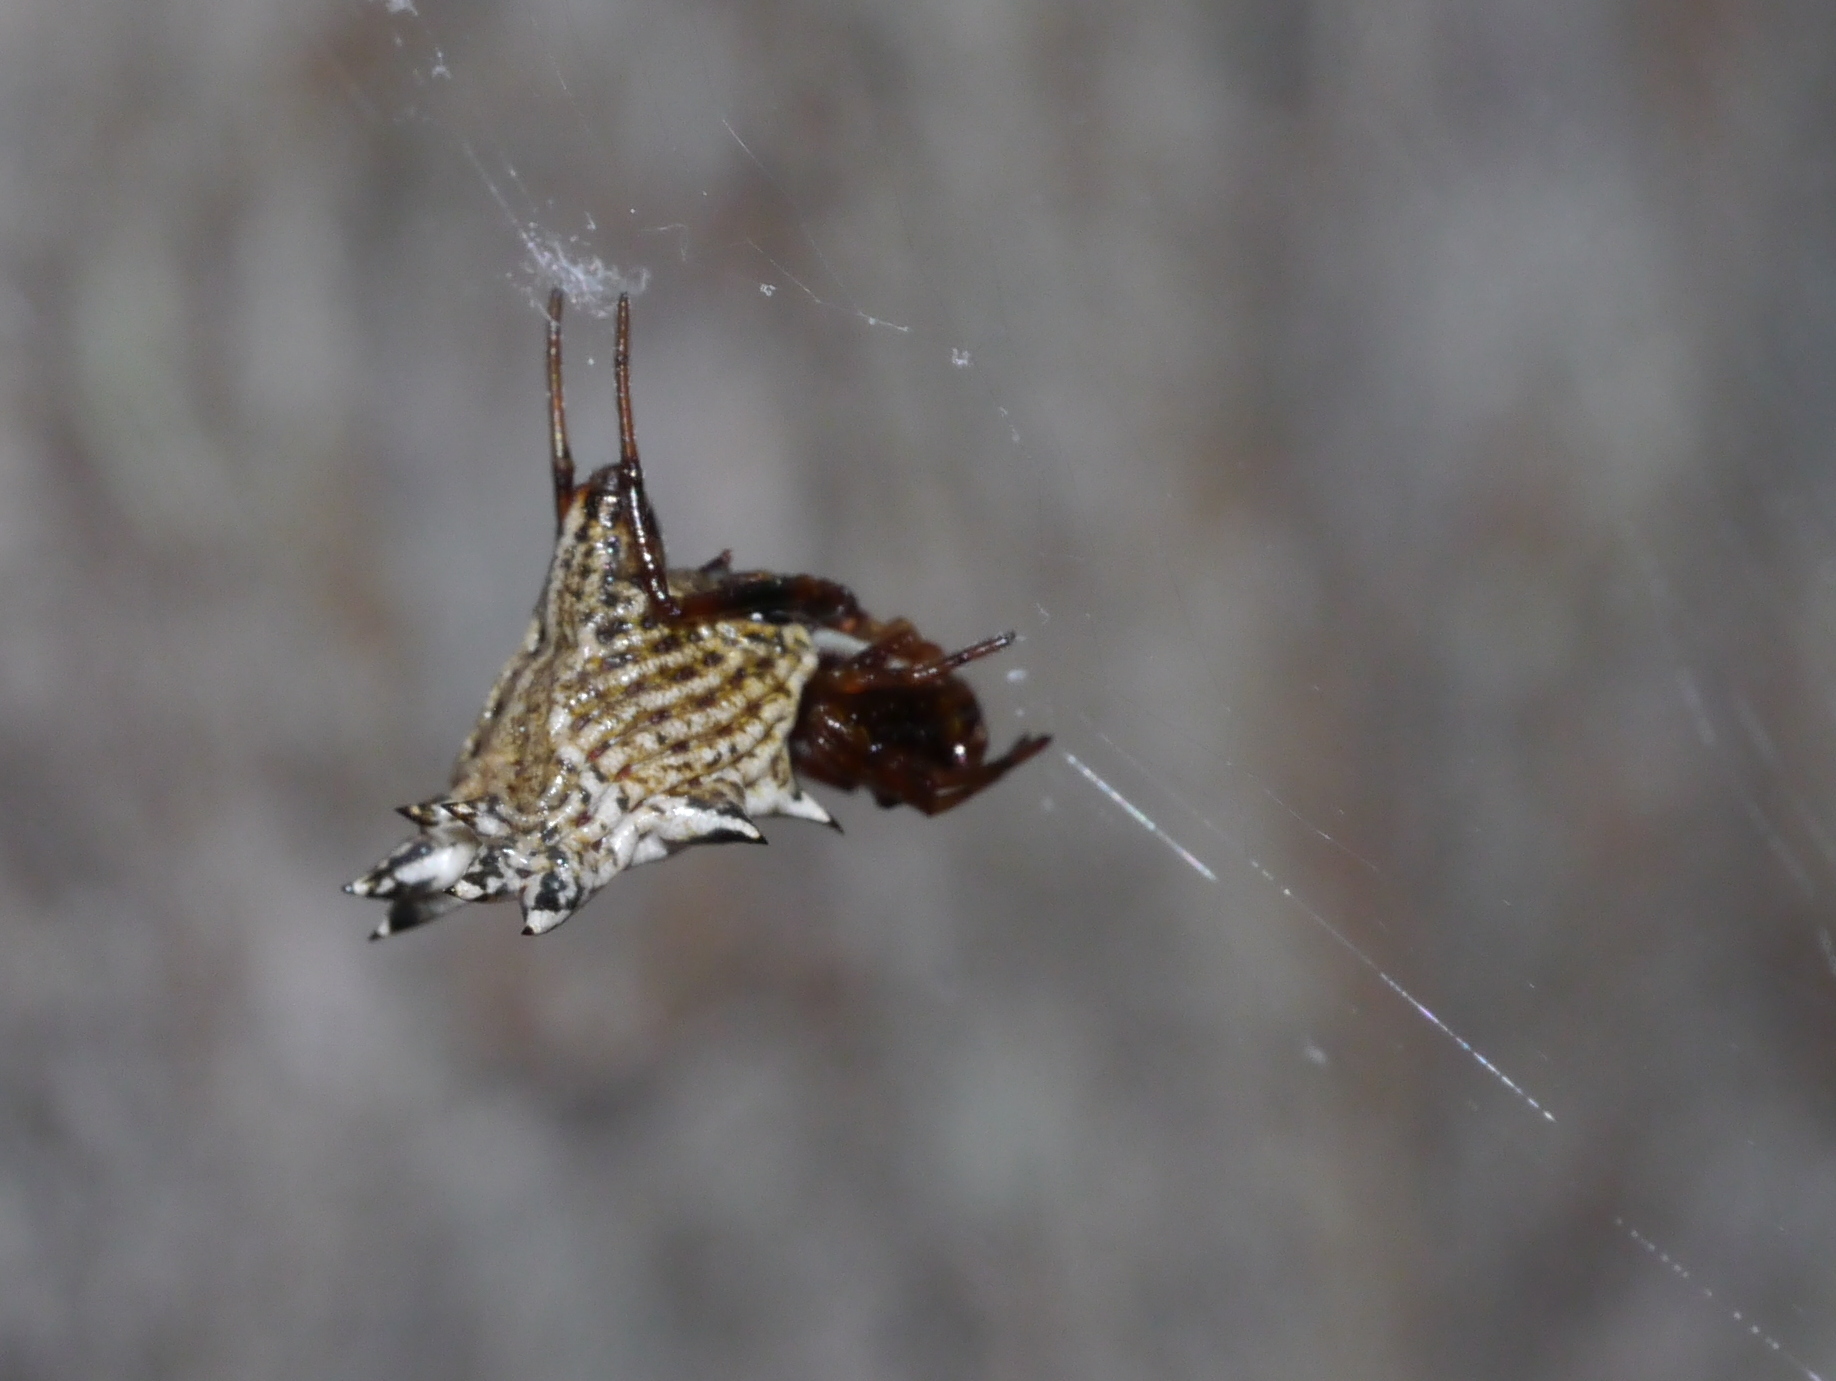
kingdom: Animalia
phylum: Arthropoda
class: Arachnida
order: Araneae
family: Araneidae
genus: Micrathena
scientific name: Micrathena gracilis
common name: Orb weavers
